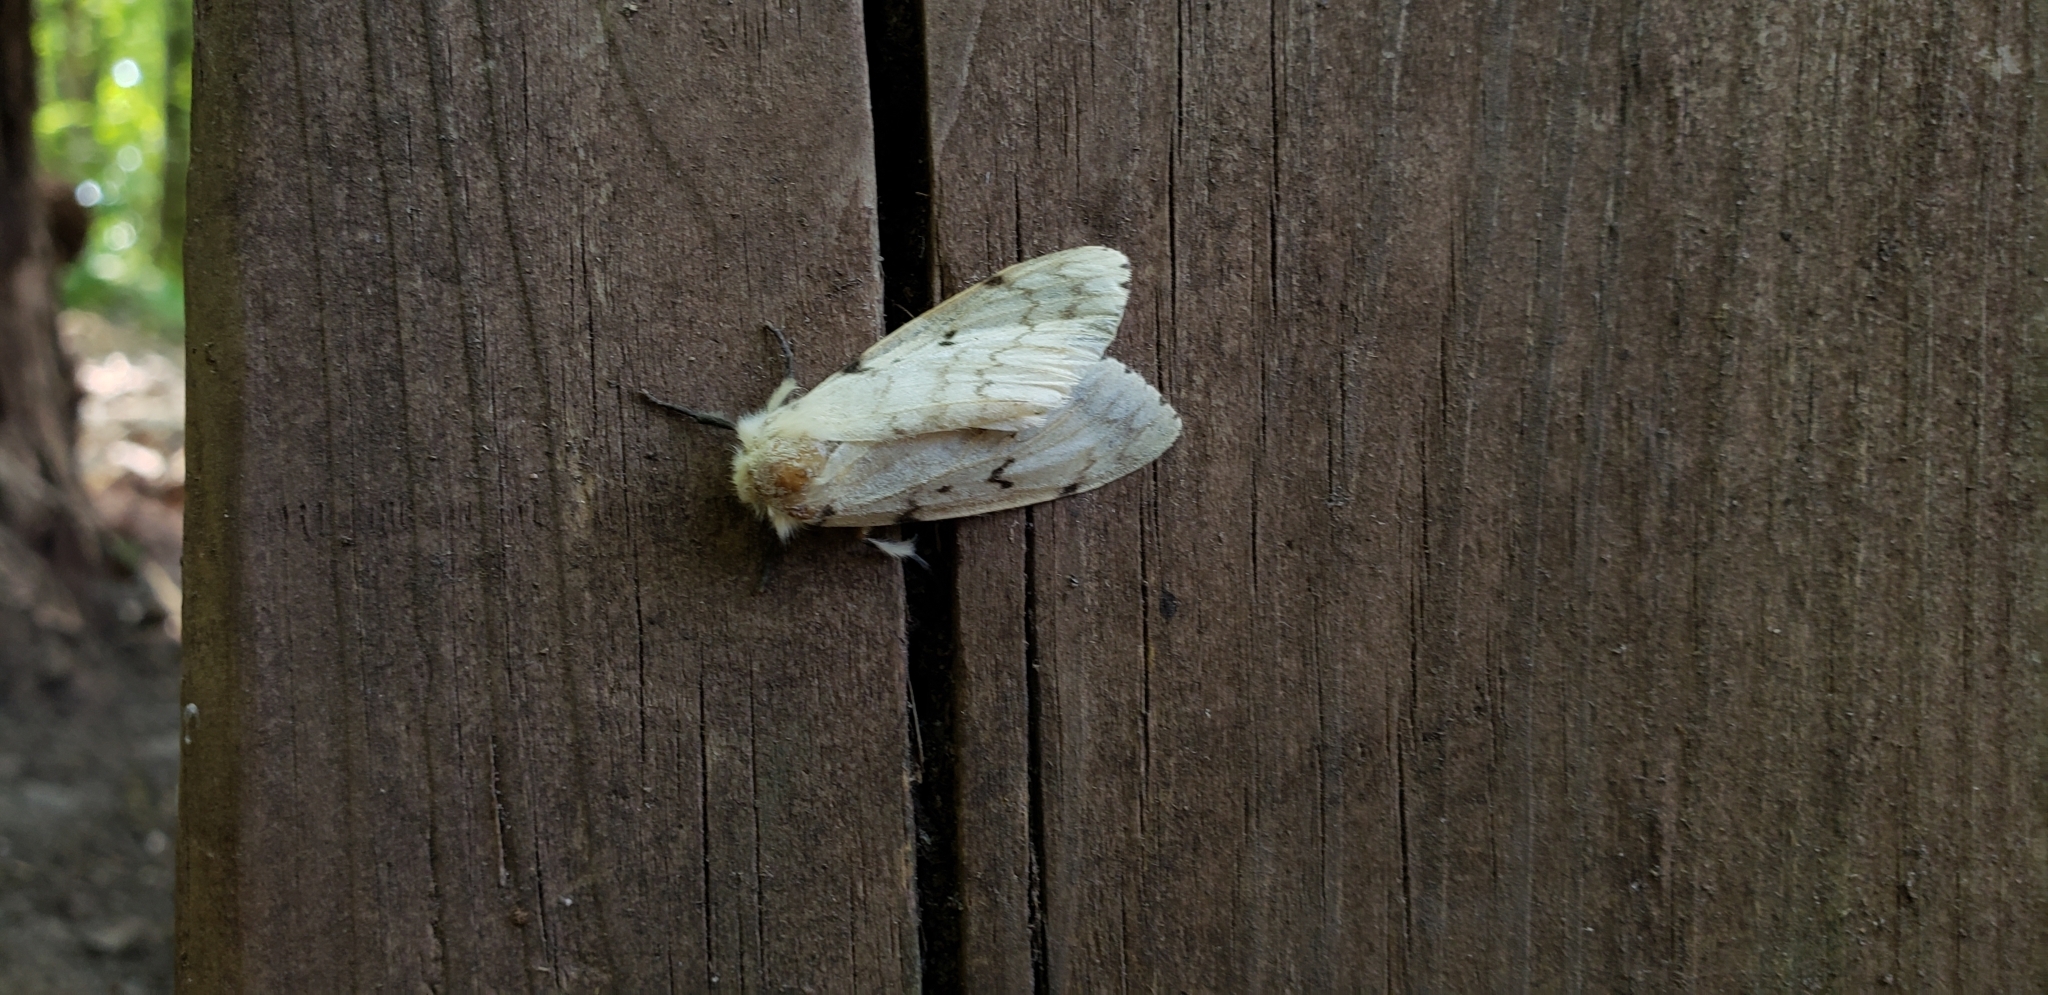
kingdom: Animalia
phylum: Arthropoda
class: Insecta
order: Lepidoptera
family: Erebidae
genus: Lymantria
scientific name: Lymantria dispar
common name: Gypsy moth
